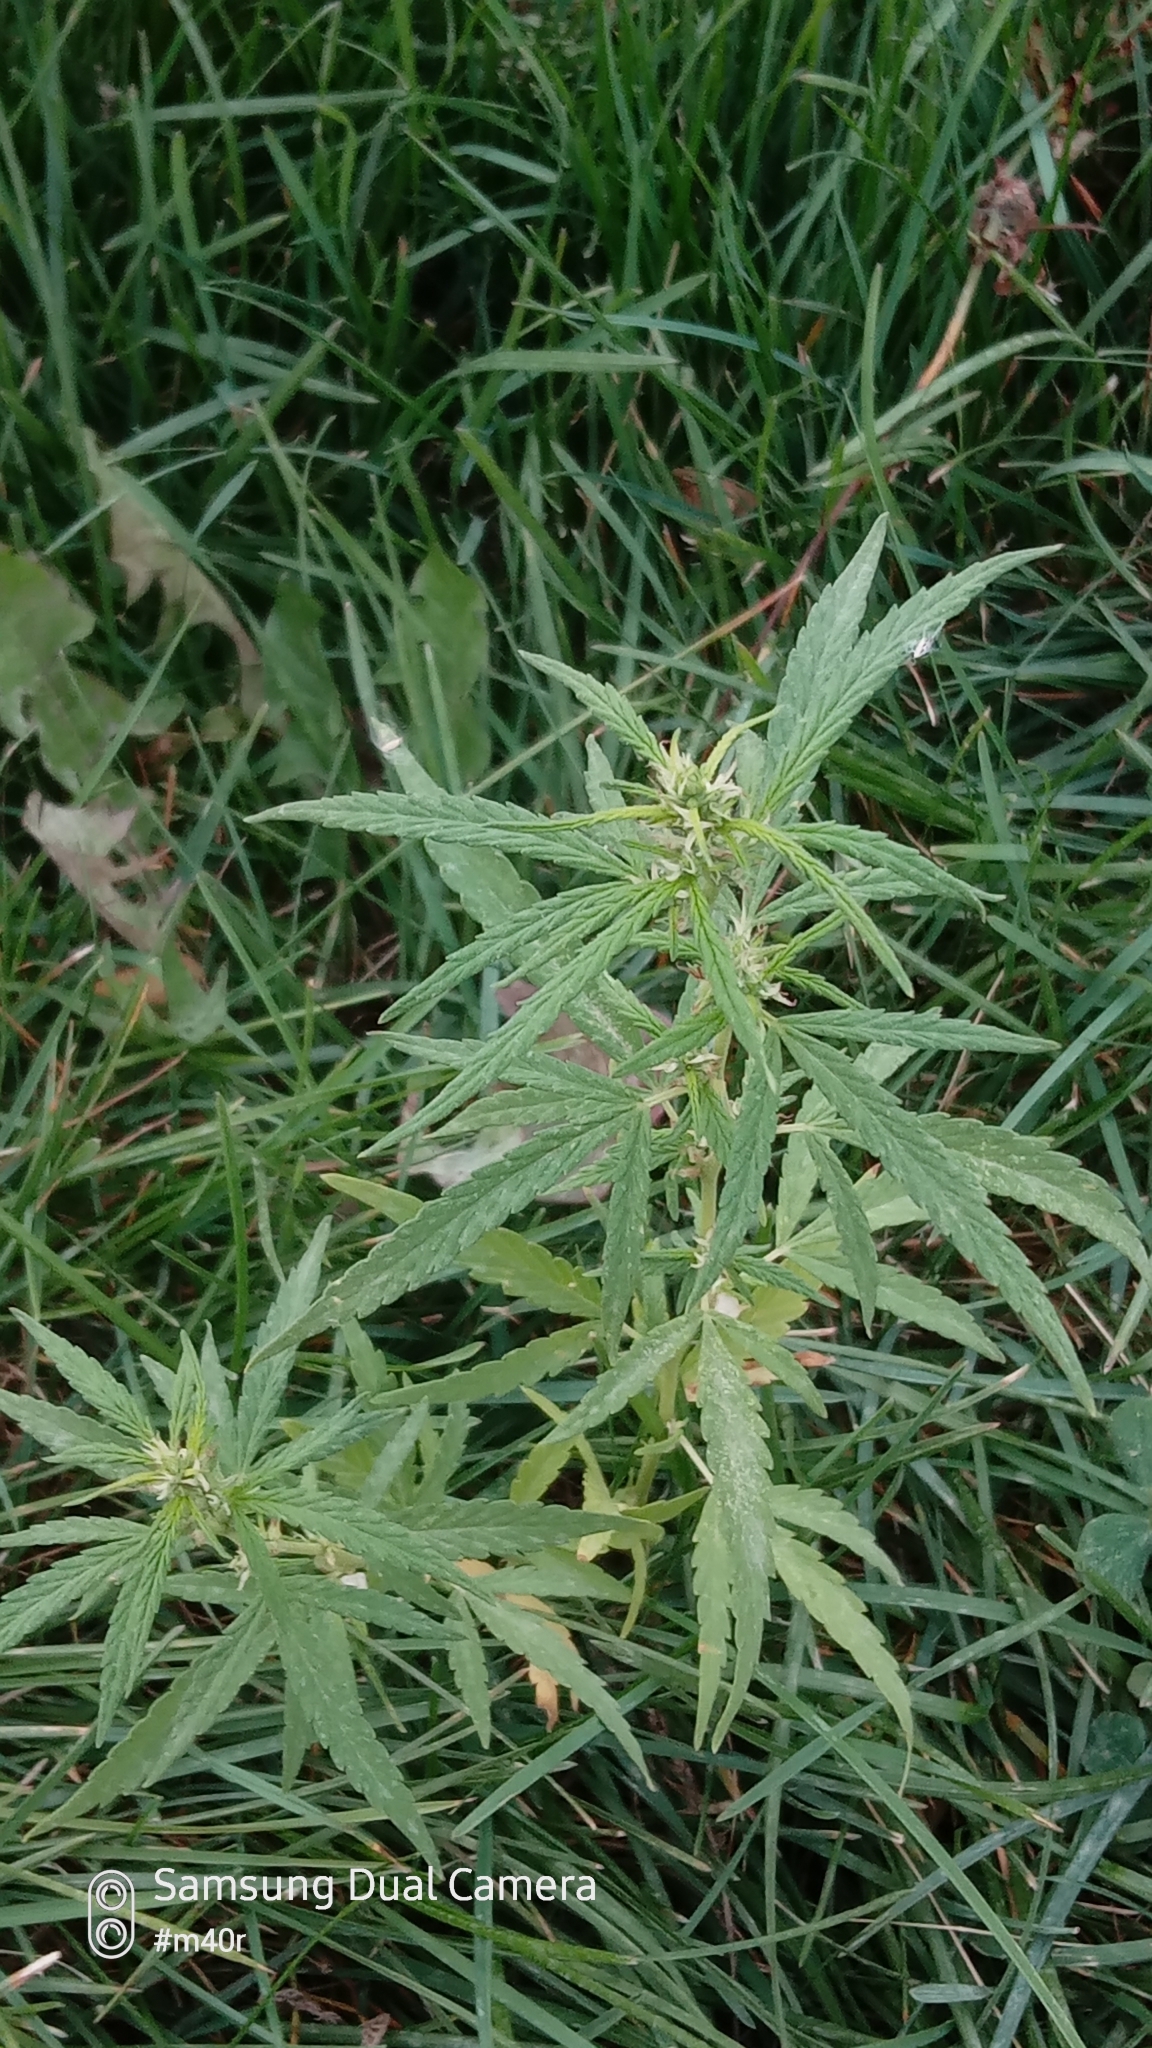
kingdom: Plantae
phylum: Tracheophyta
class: Magnoliopsida
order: Rosales
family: Cannabaceae
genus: Cannabis
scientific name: Cannabis sativa
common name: Hemp
